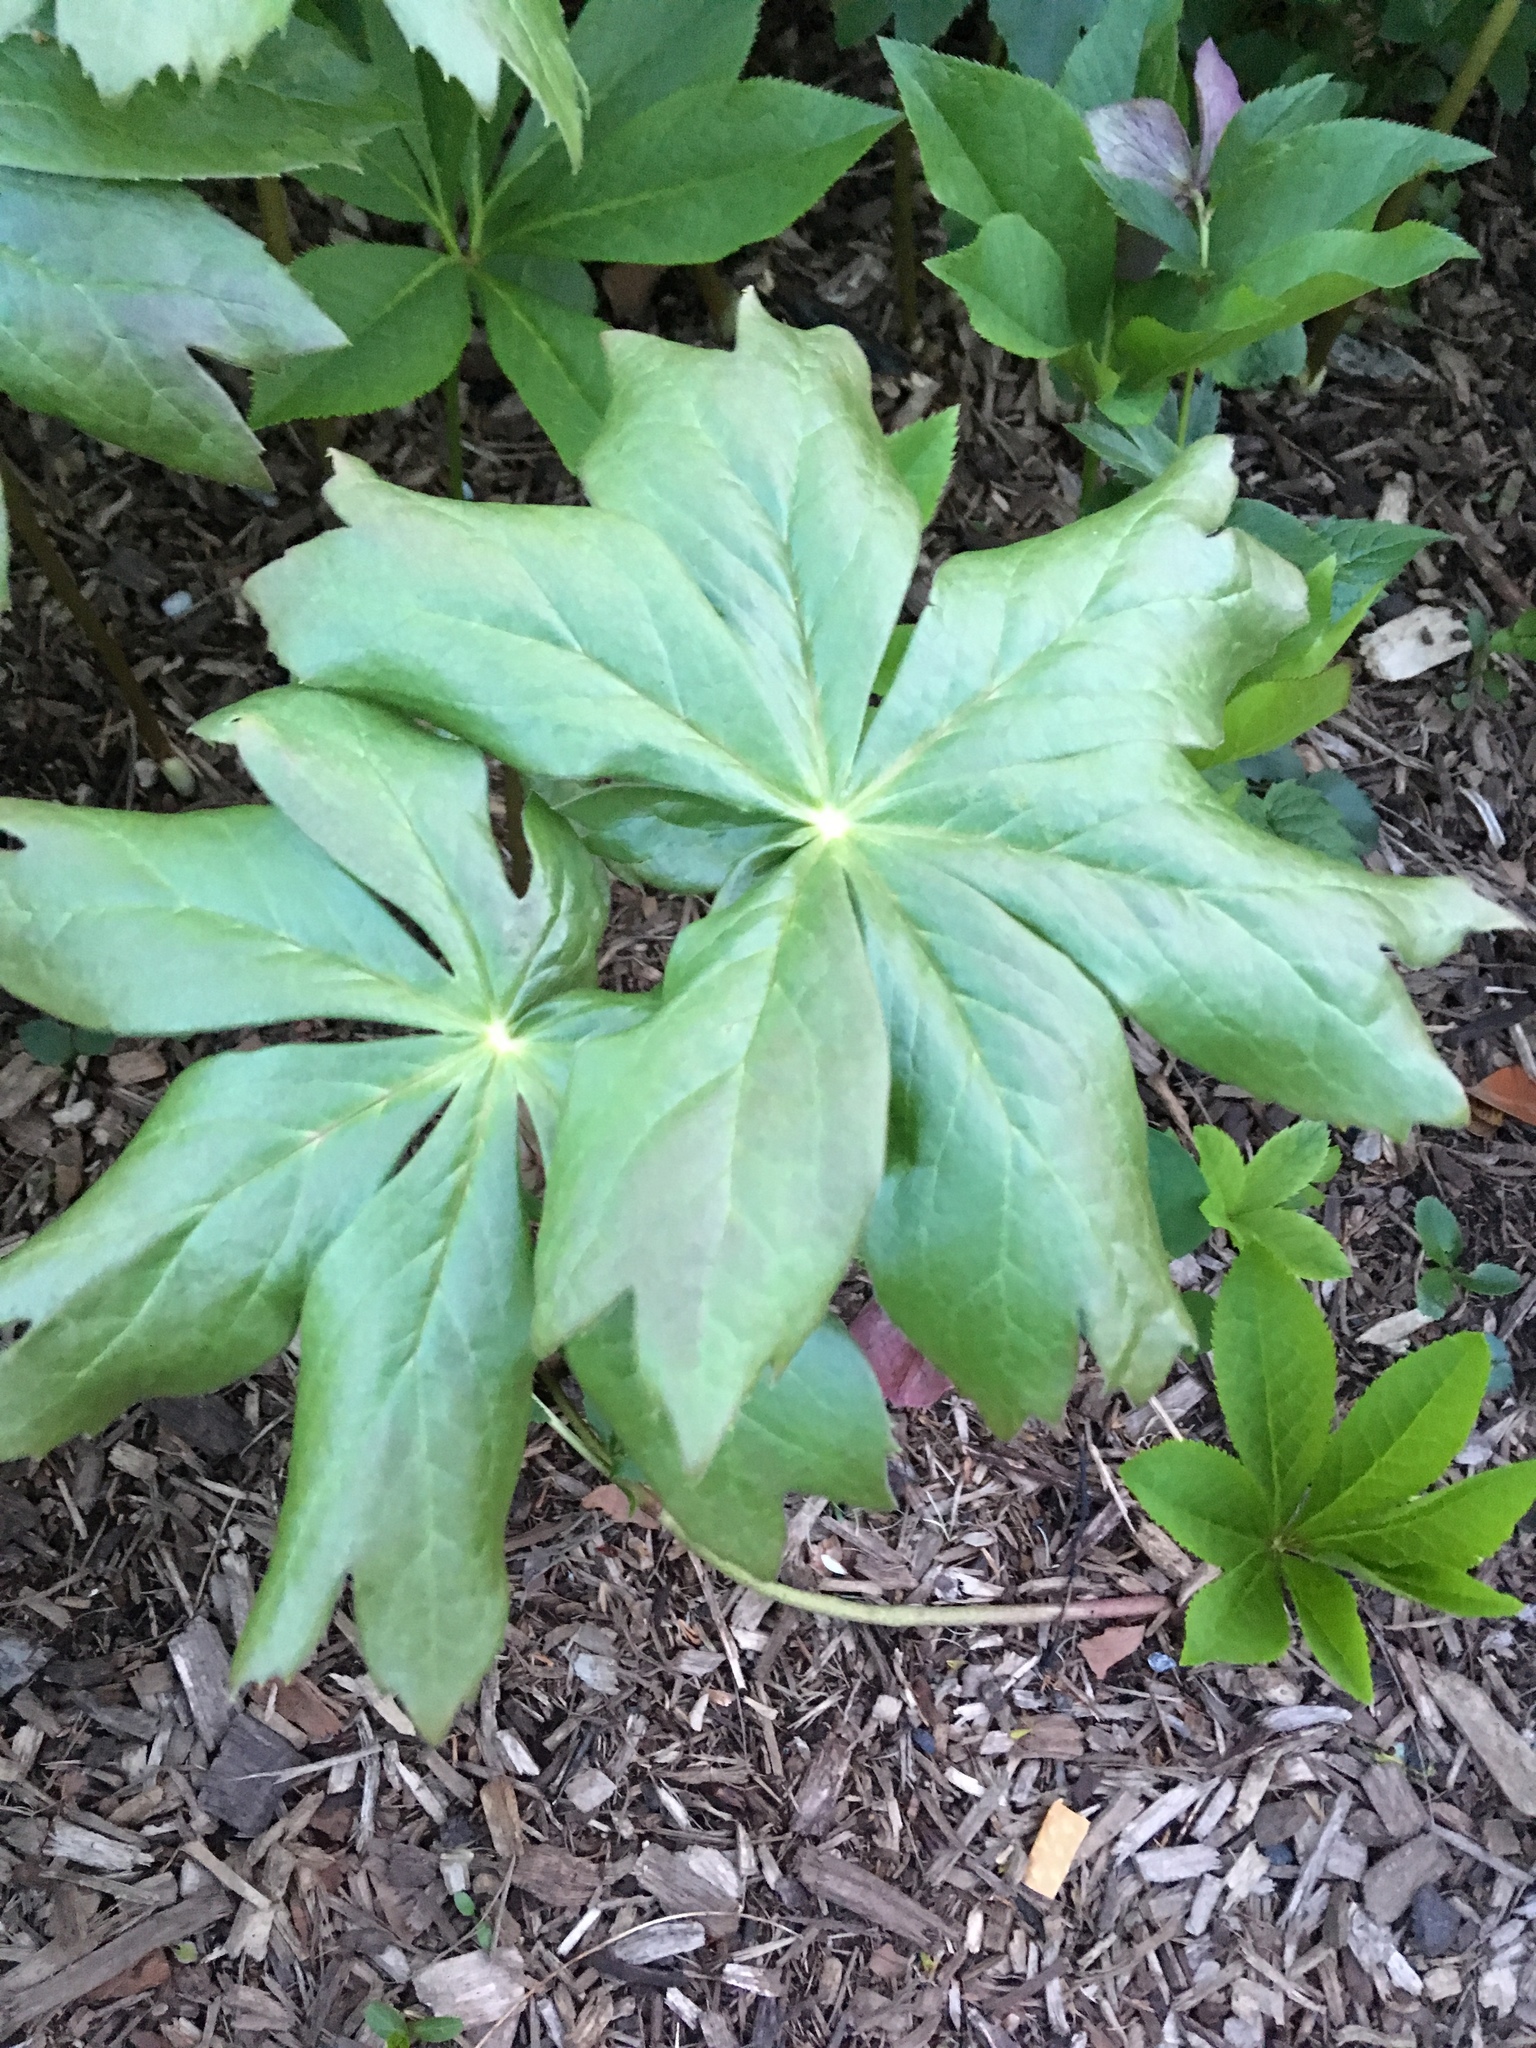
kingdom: Plantae
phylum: Tracheophyta
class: Magnoliopsida
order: Ranunculales
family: Berberidaceae
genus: Podophyllum
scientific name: Podophyllum peltatum
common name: Wild mandrake
